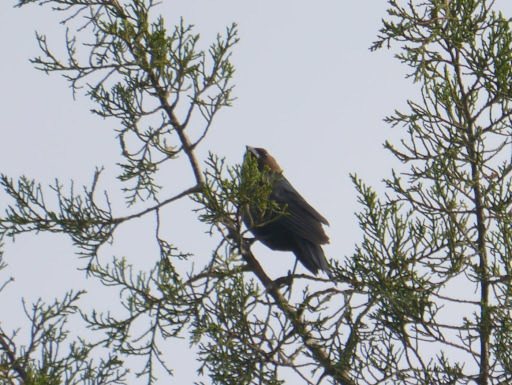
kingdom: Animalia
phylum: Chordata
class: Aves
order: Passeriformes
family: Icteridae
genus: Molothrus
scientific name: Molothrus ater
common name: Brown-headed cowbird
